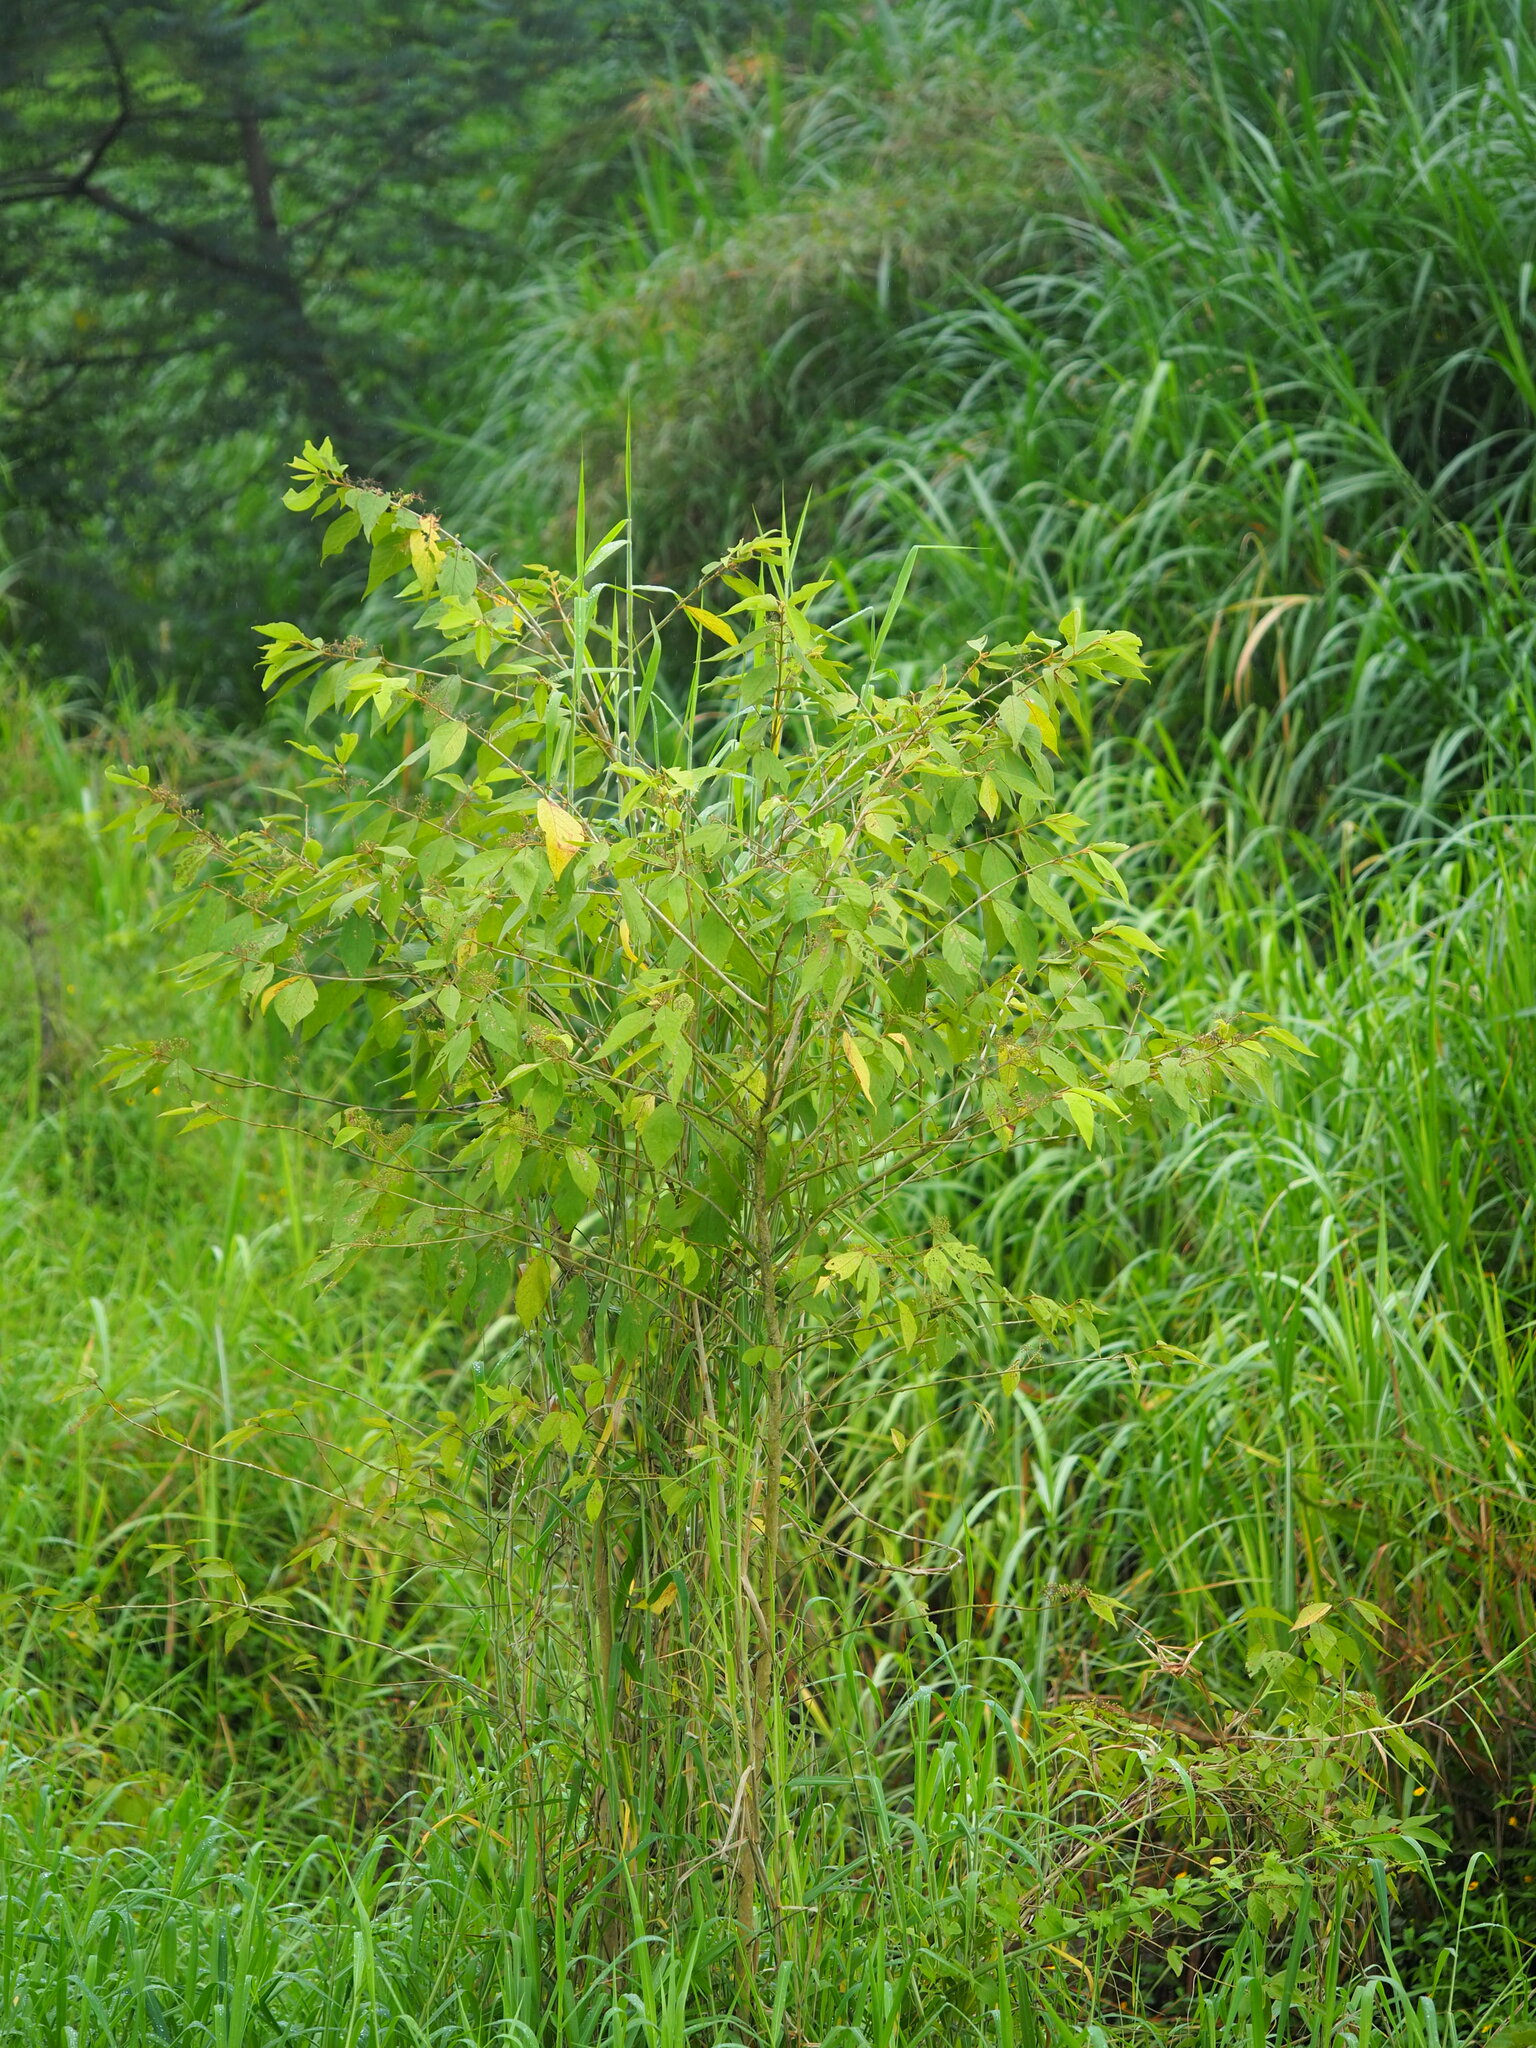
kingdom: Plantae
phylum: Tracheophyta
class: Magnoliopsida
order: Lamiales
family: Lamiaceae
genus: Callicarpa
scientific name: Callicarpa pedunculata
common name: Velvetleaf
